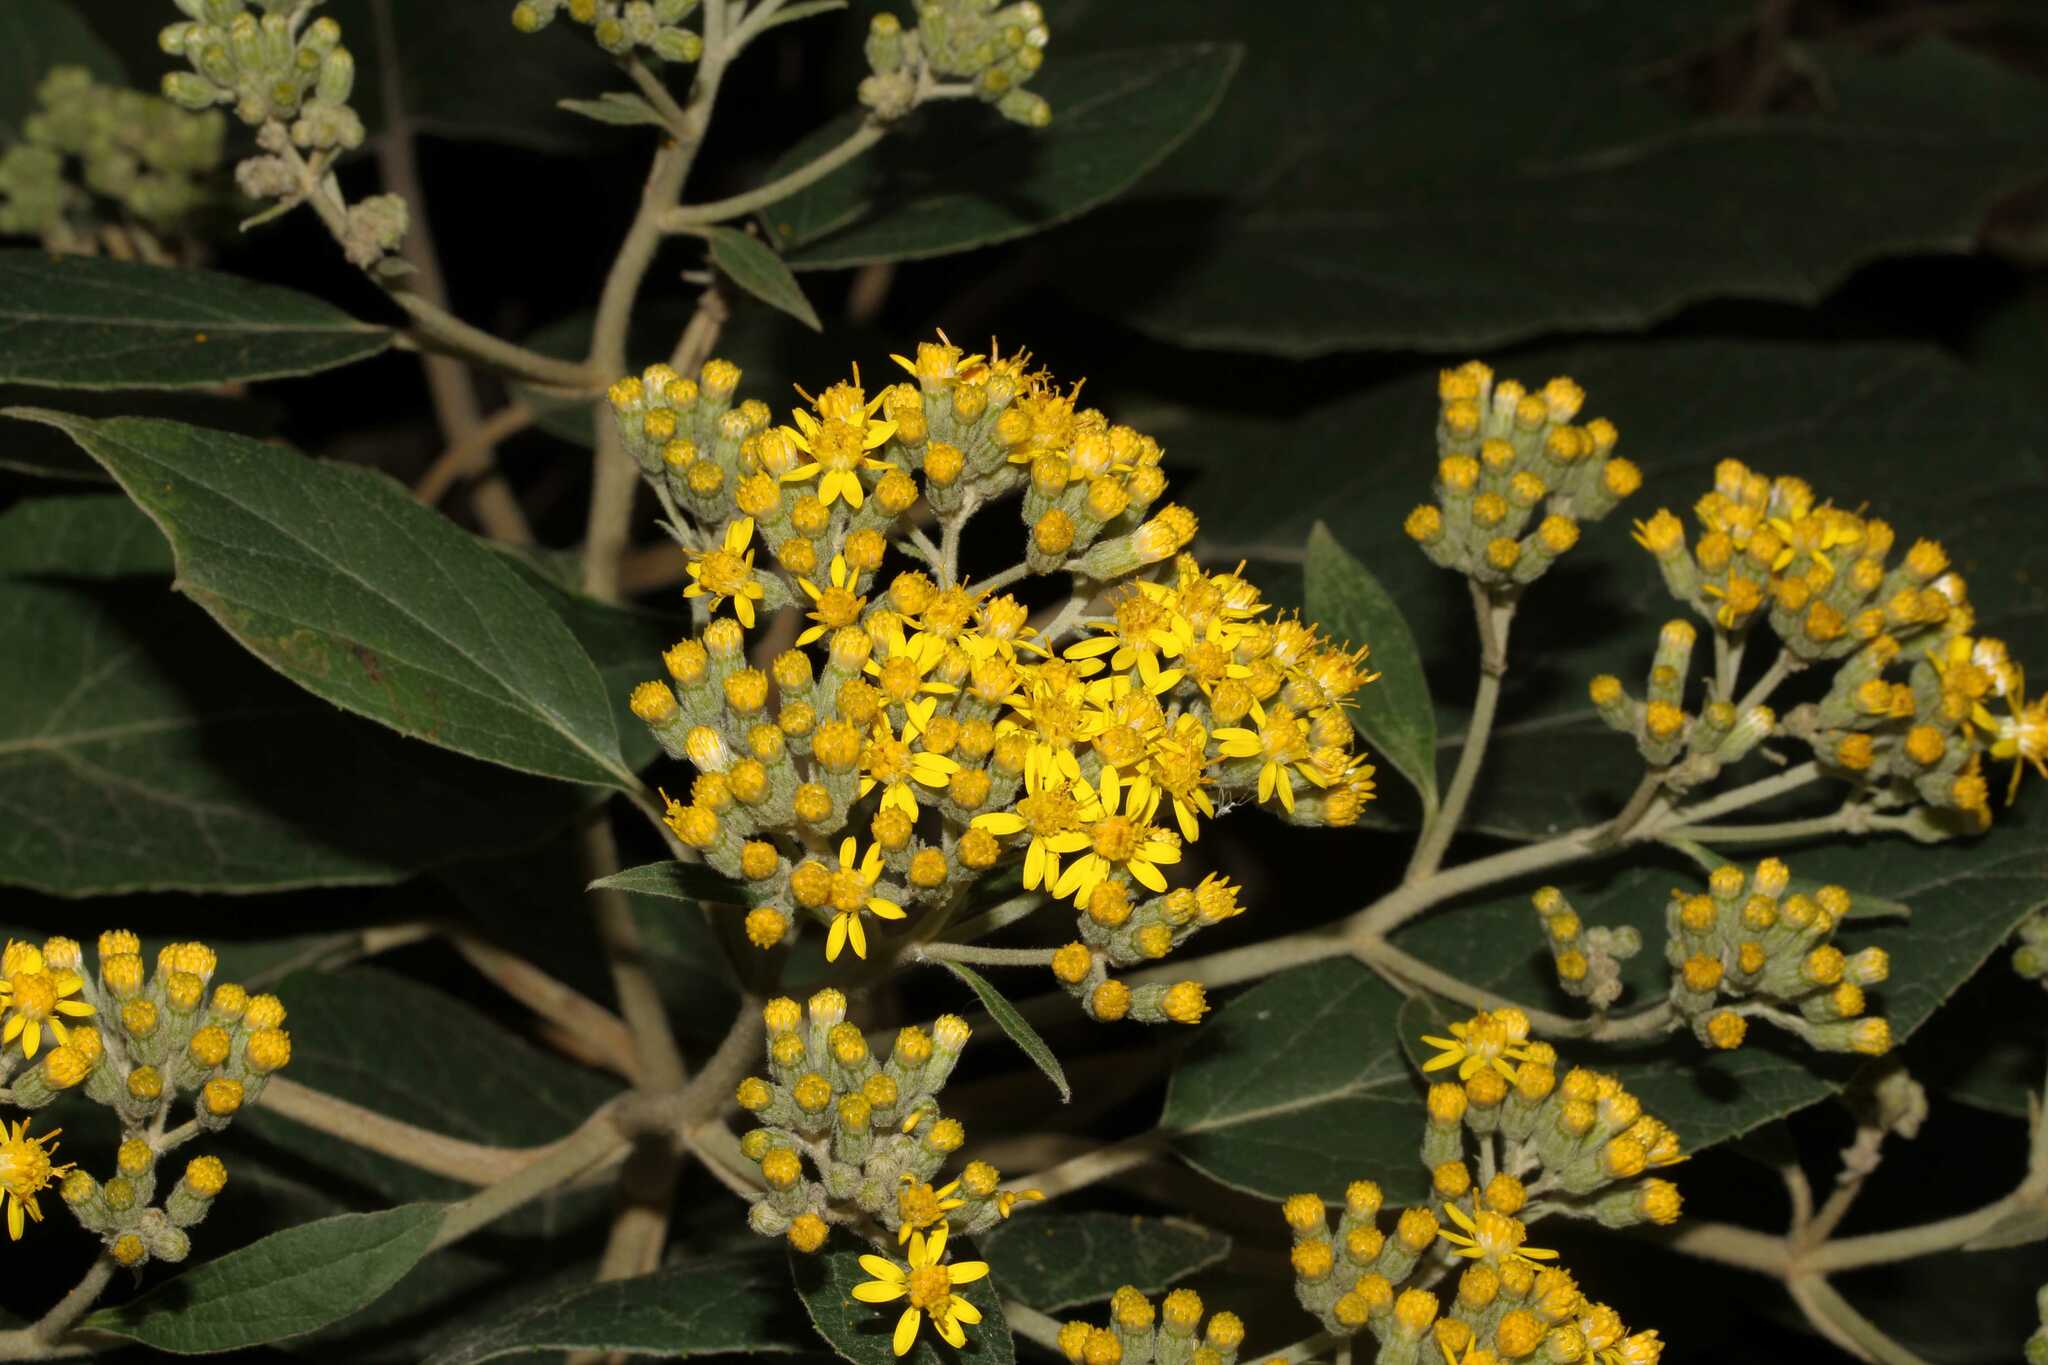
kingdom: Plantae
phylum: Tracheophyta
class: Magnoliopsida
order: Asterales
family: Asteraceae
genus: Roldana
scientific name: Roldana barba-johannis
